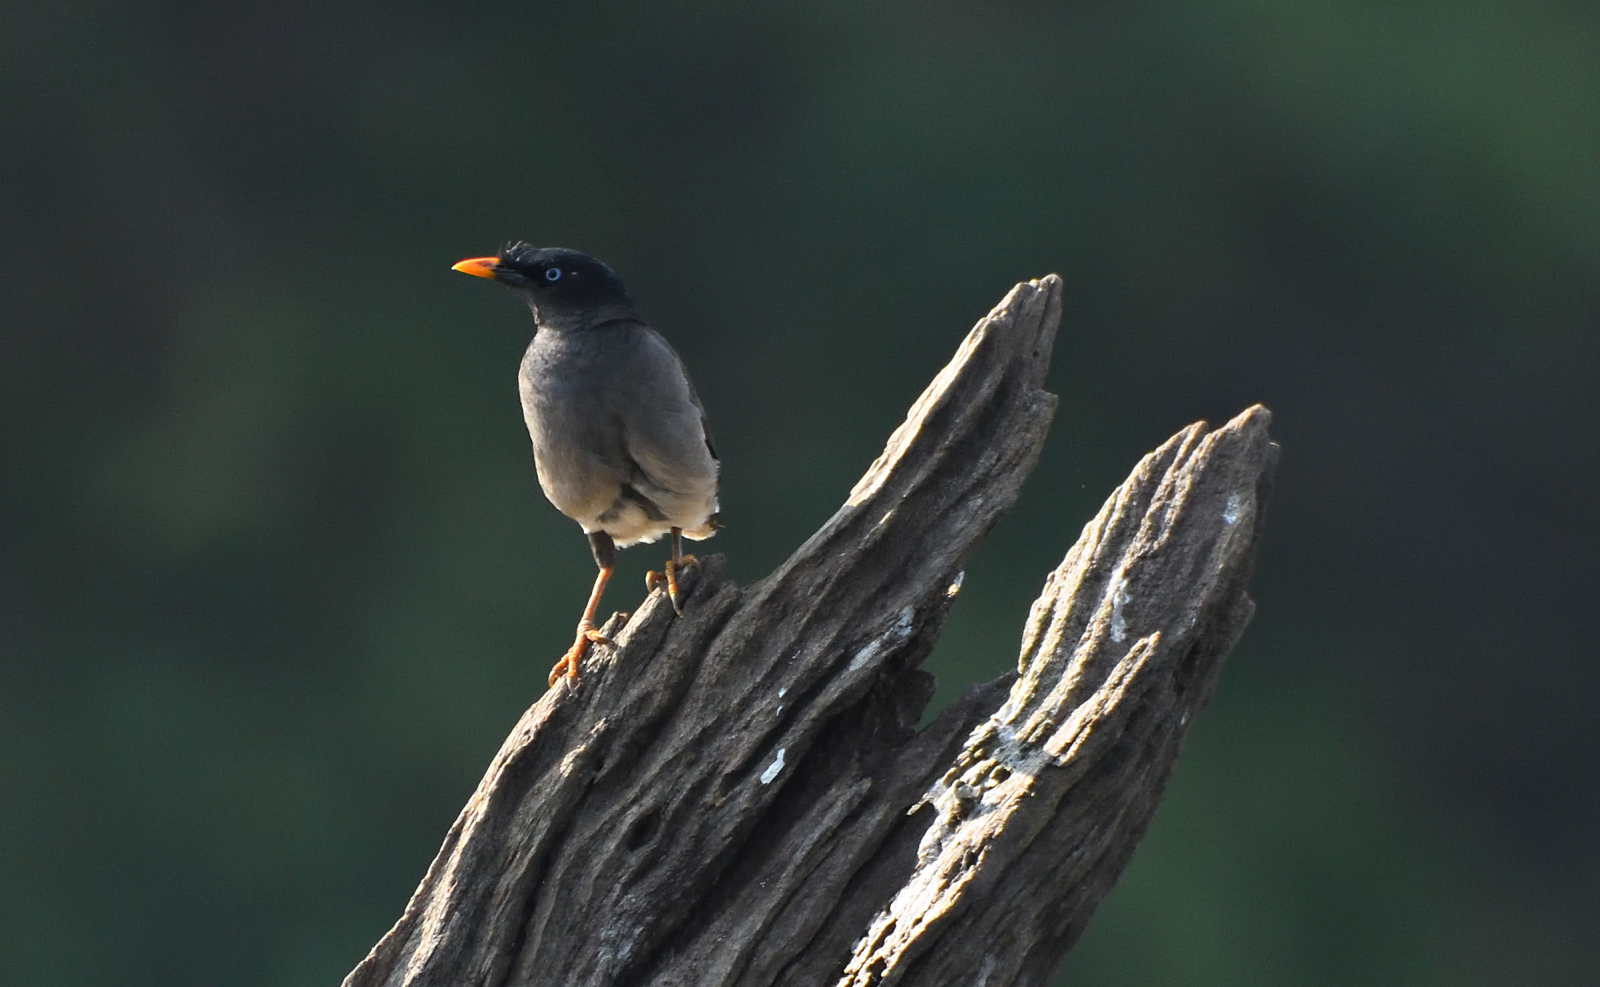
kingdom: Animalia
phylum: Chordata
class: Aves
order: Passeriformes
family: Sturnidae
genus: Acridotheres
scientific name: Acridotheres fuscus
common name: Jungle myna
